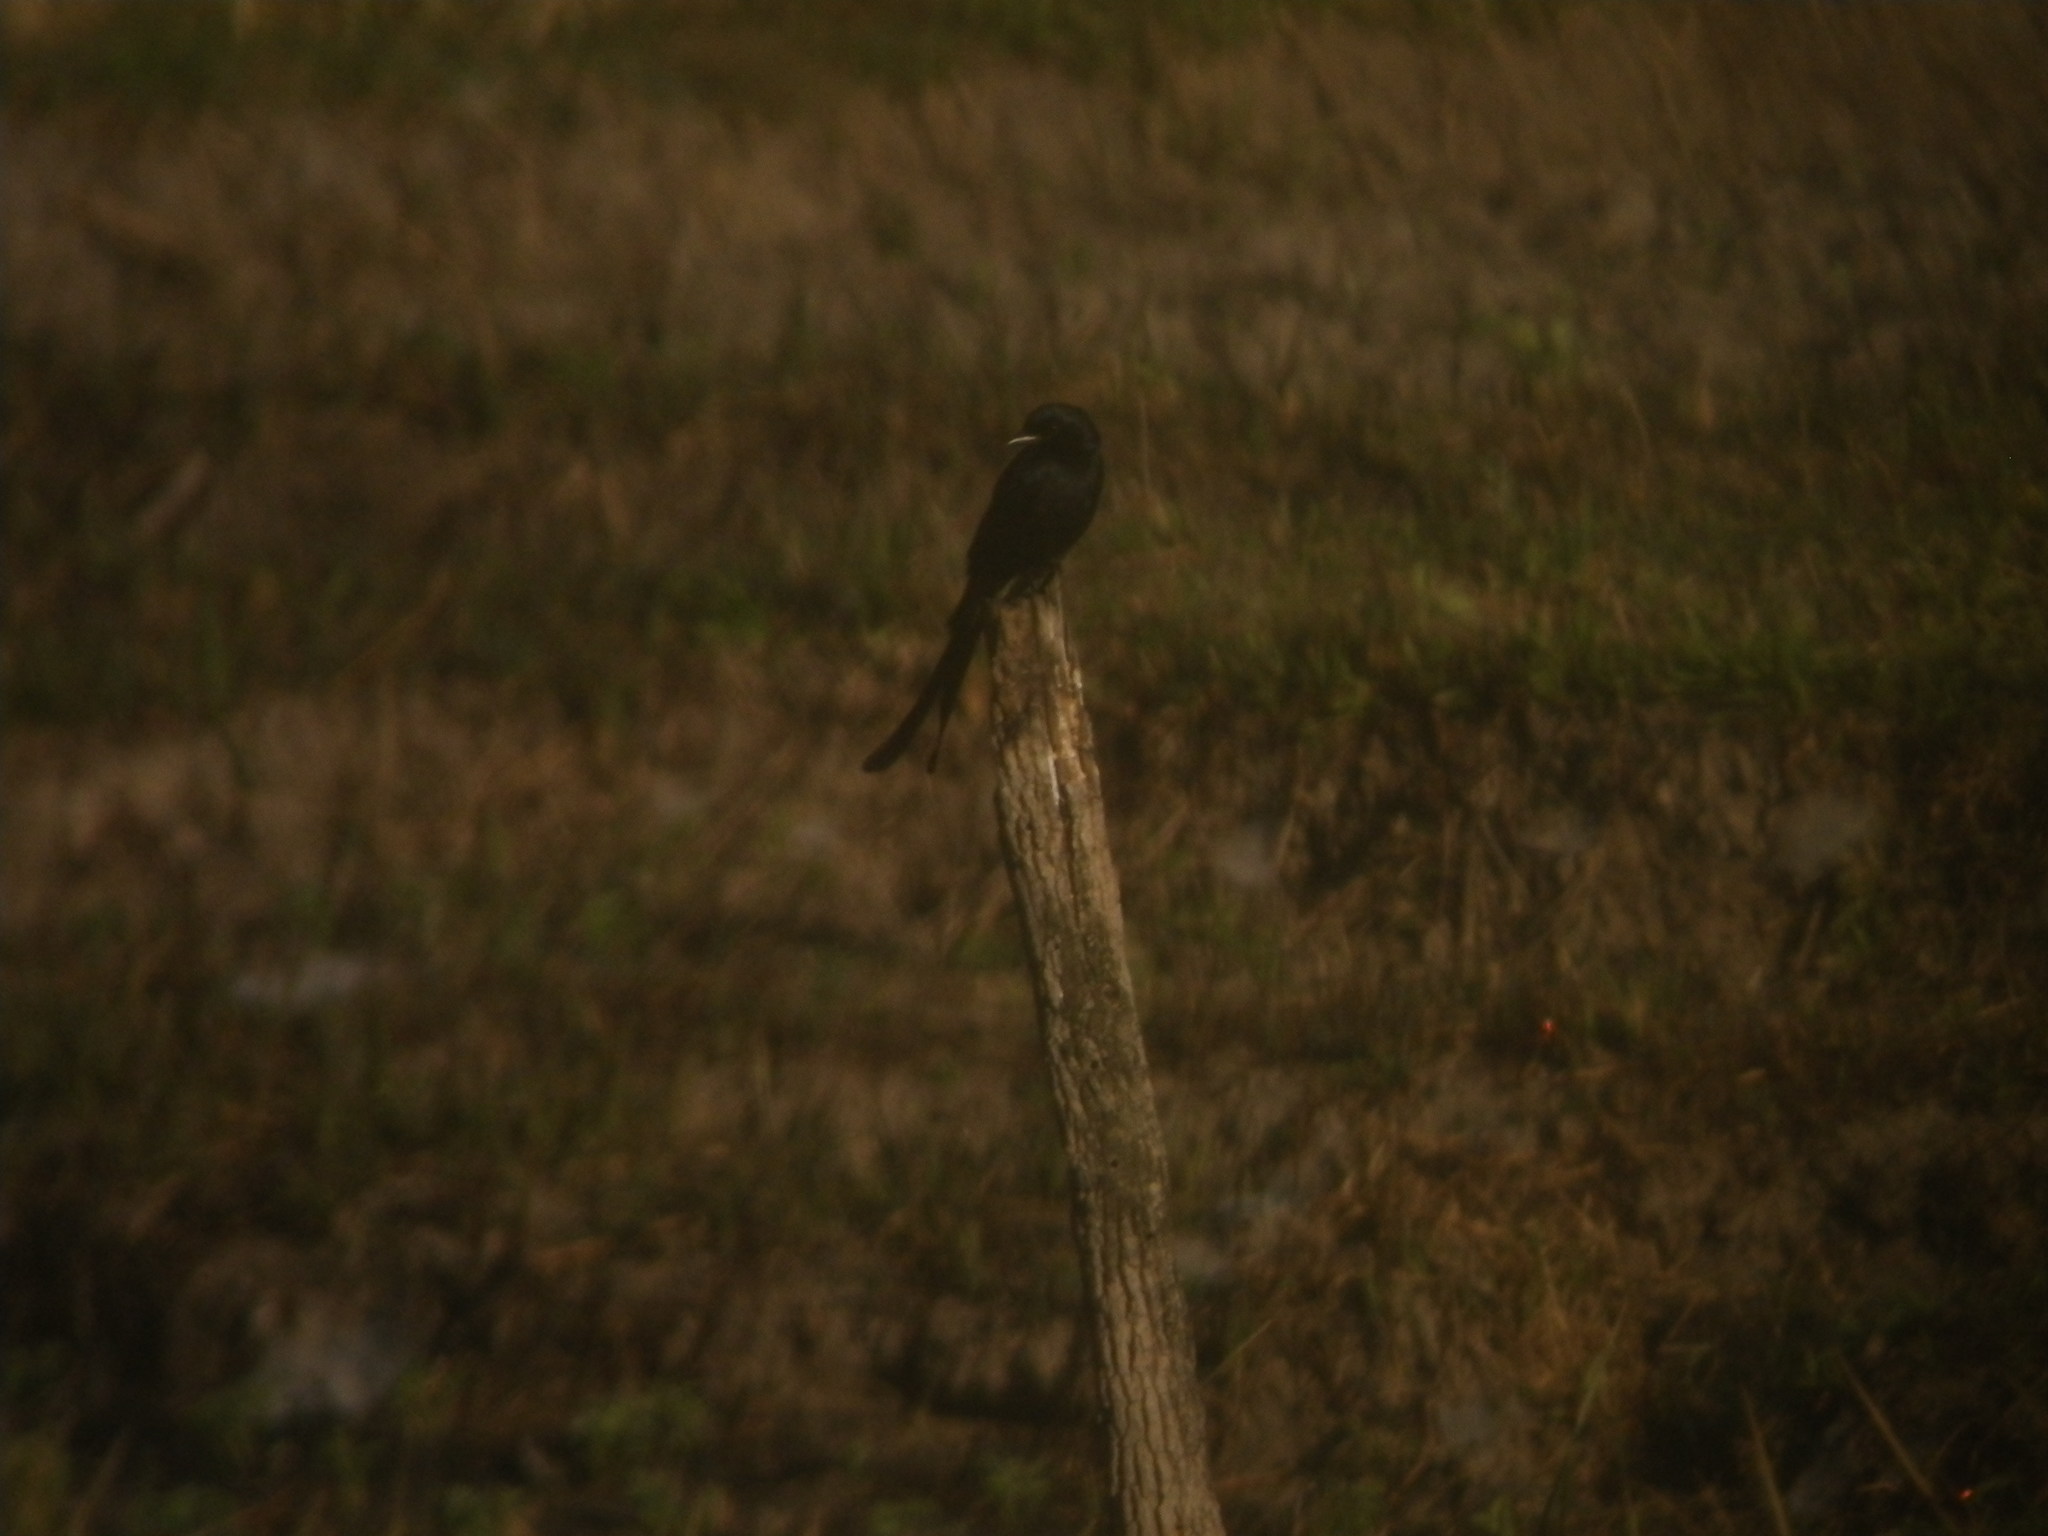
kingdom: Animalia
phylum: Chordata
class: Aves
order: Passeriformes
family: Dicruridae
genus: Dicrurus
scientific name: Dicrurus macrocercus
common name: Black drongo
